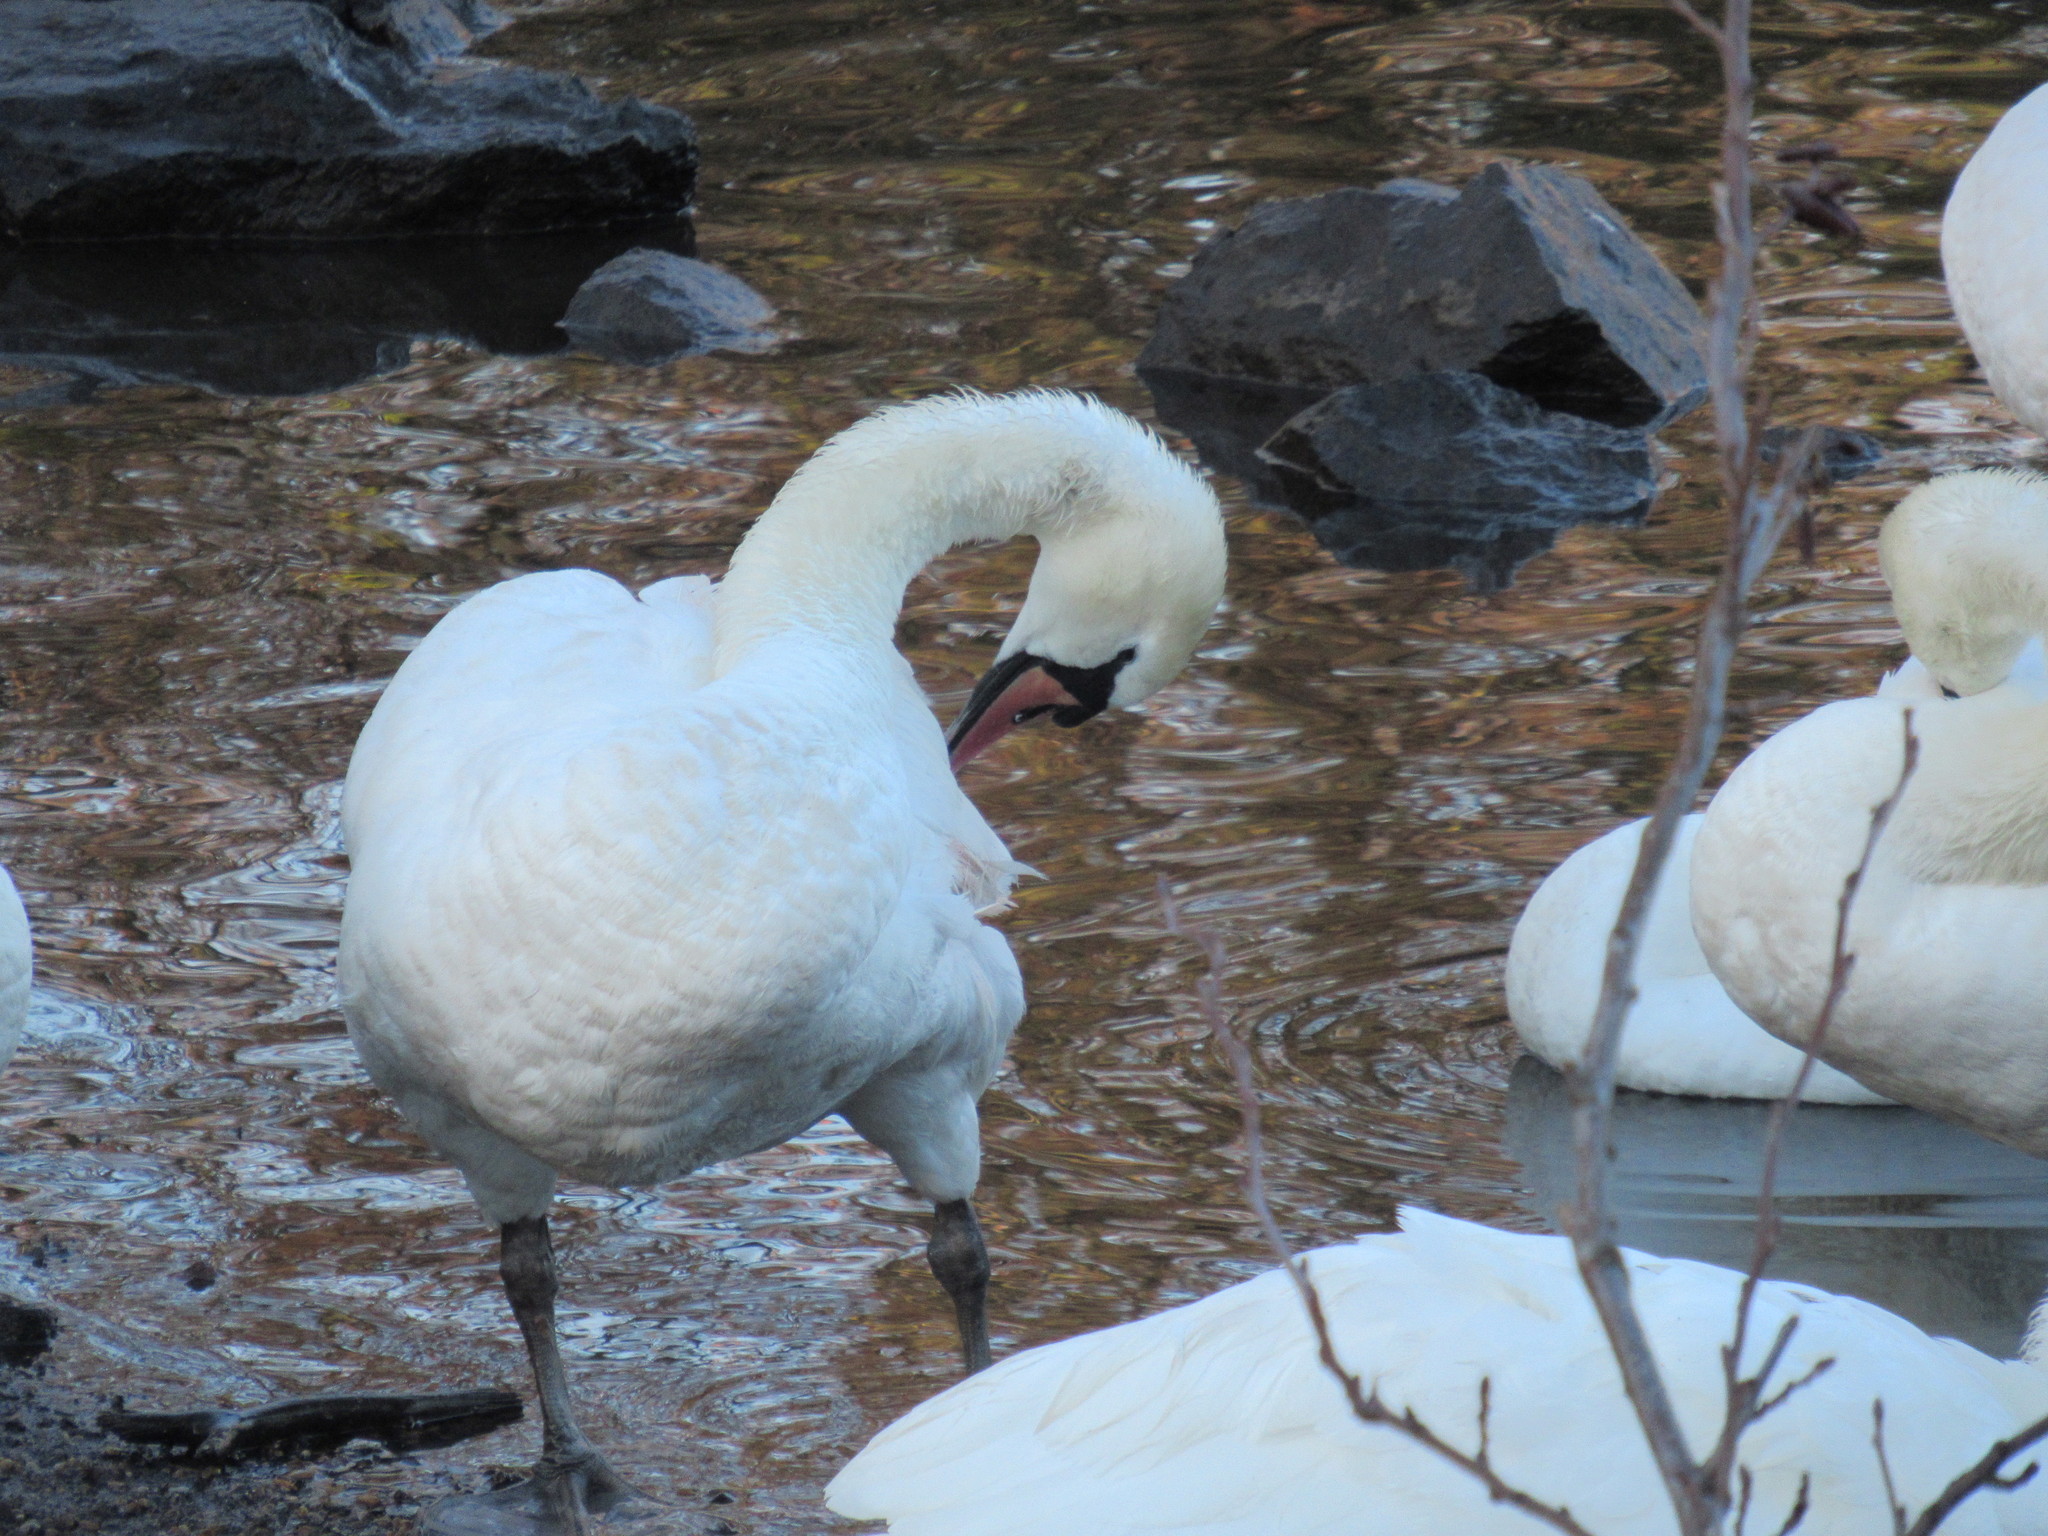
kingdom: Animalia
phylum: Chordata
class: Aves
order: Anseriformes
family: Anatidae
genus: Cygnus
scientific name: Cygnus olor
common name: Mute swan
